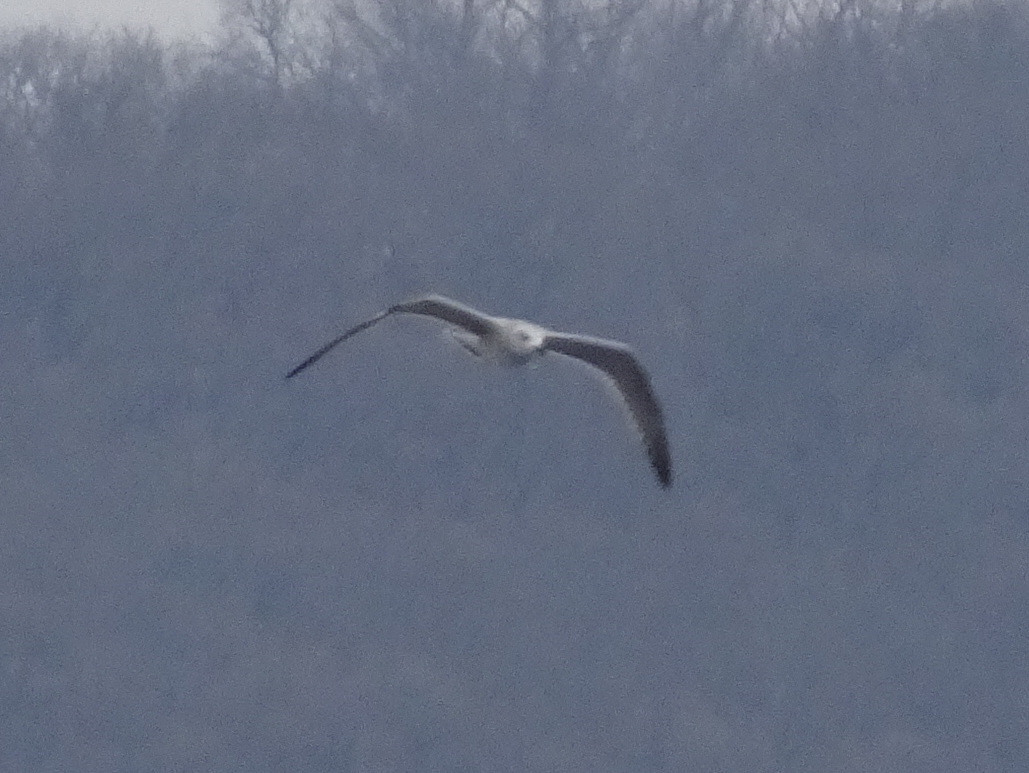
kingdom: Animalia
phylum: Chordata
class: Aves
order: Charadriiformes
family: Laridae
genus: Larus
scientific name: Larus marinus
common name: Great black-backed gull
